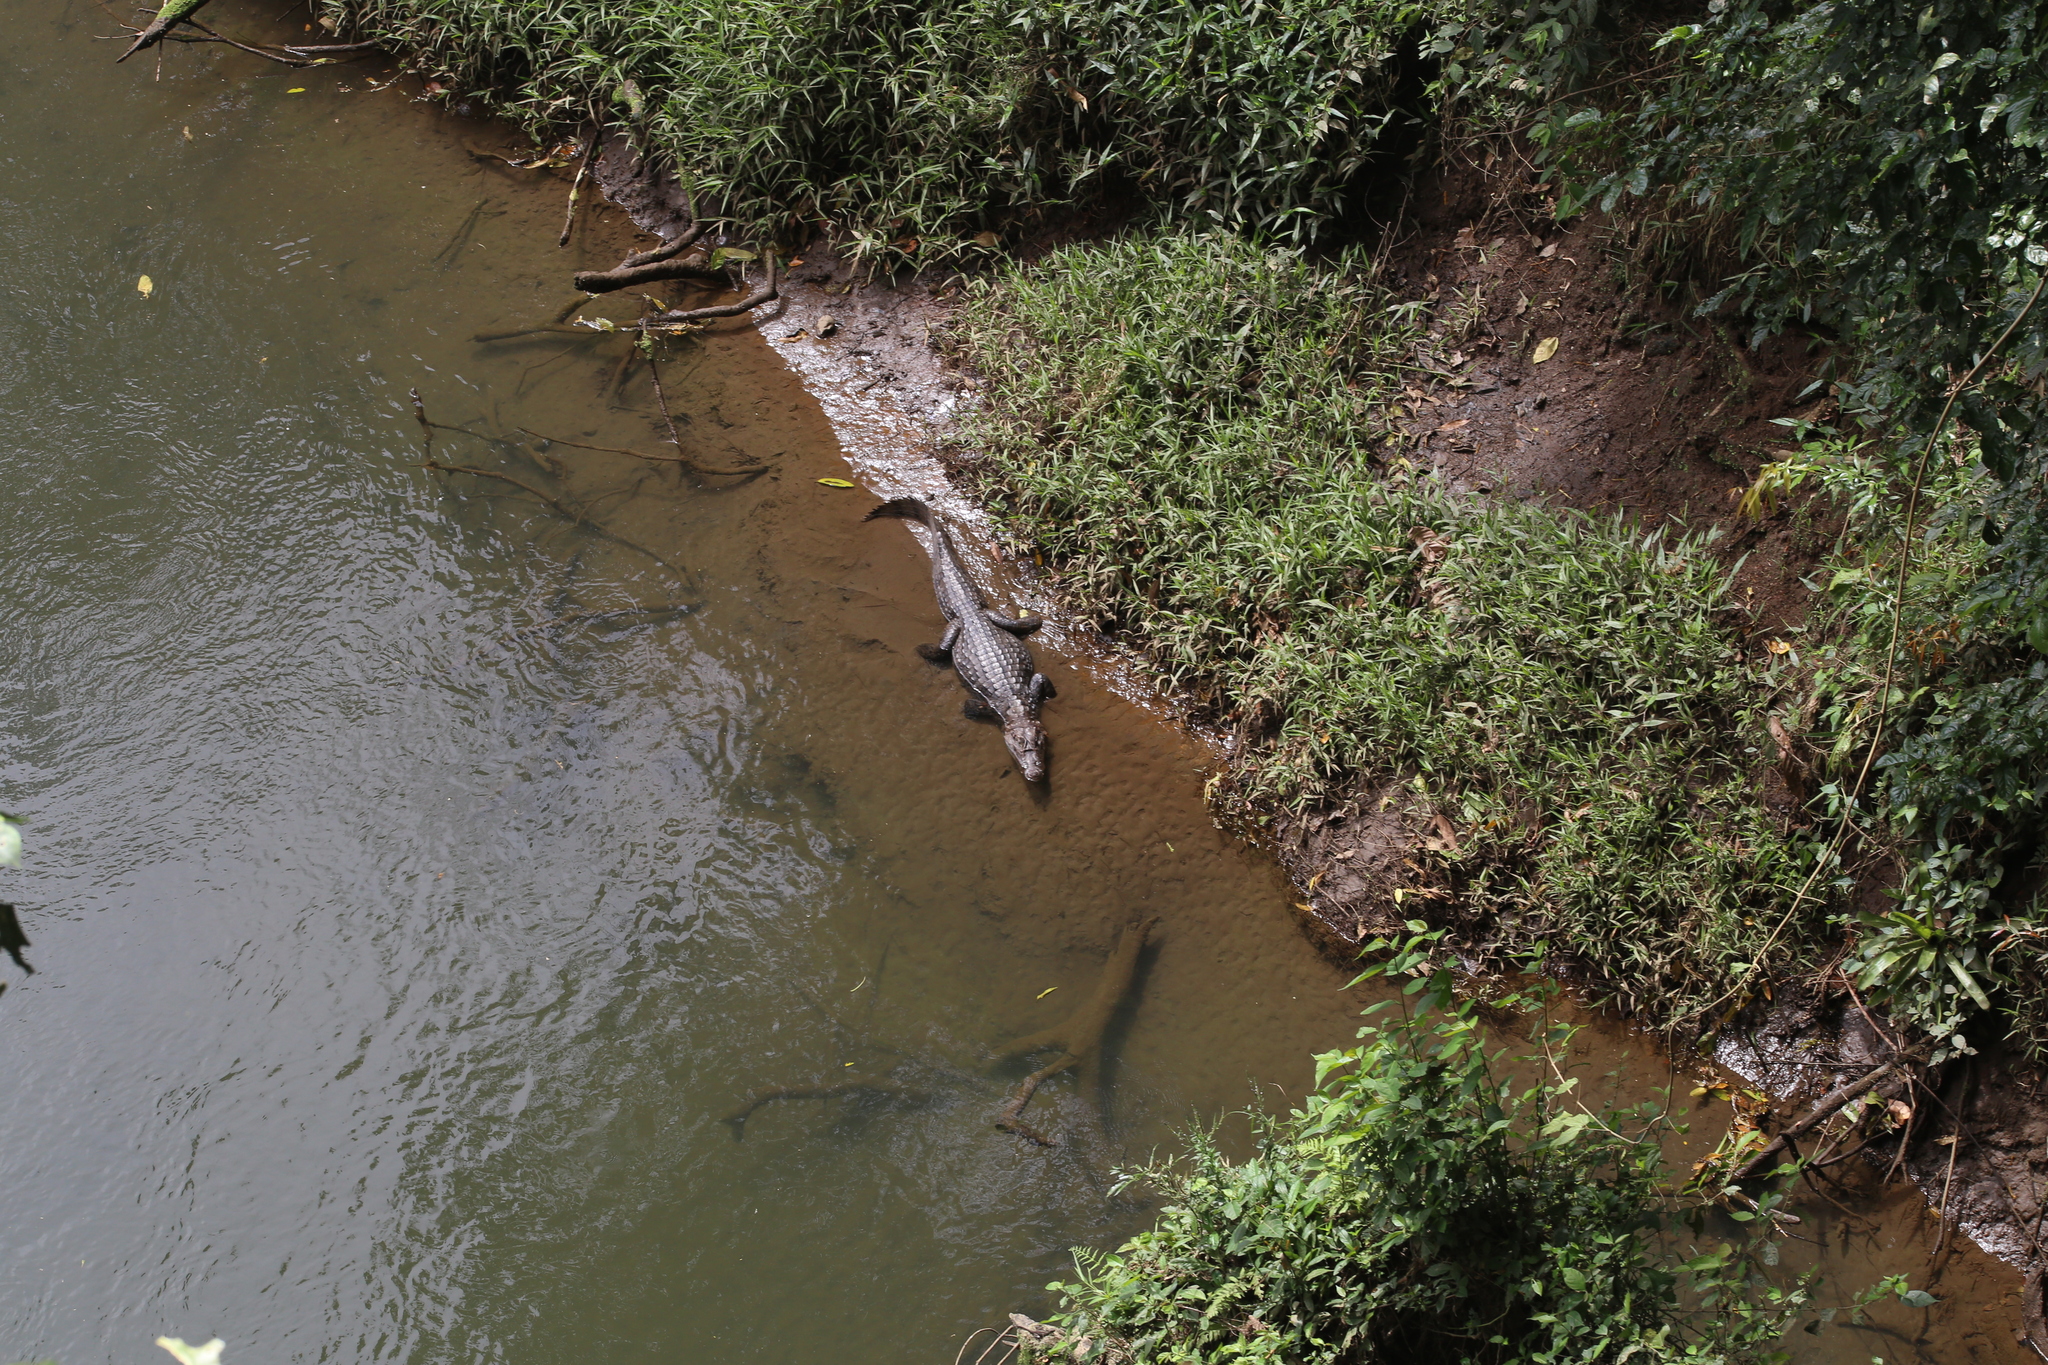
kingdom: Animalia
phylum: Chordata
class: Crocodylia
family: Alligatoridae
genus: Caiman
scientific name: Caiman crocodilus
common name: Common caiman
